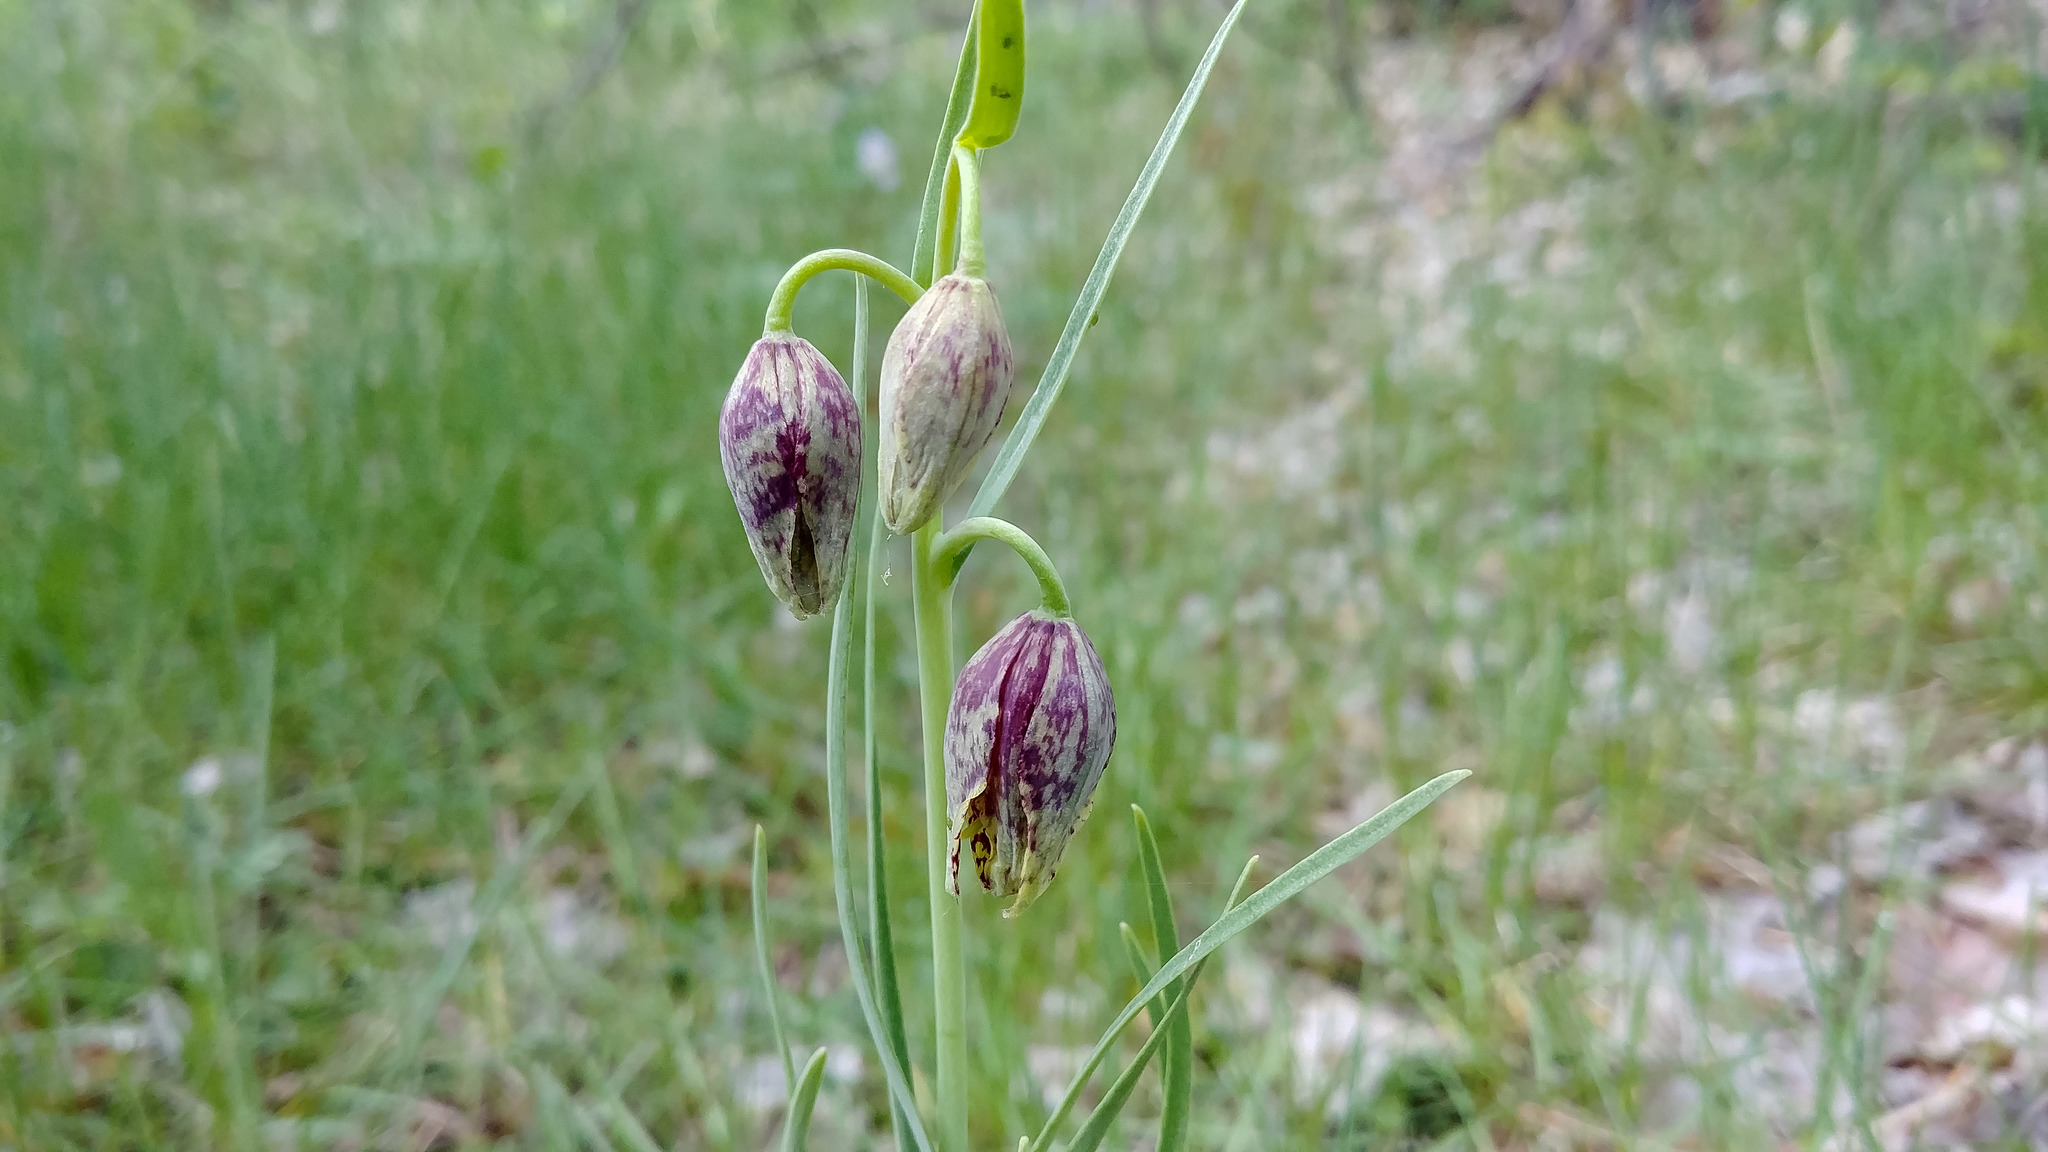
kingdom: Plantae
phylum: Tracheophyta
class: Liliopsida
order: Liliales
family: Liliaceae
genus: Fritillaria
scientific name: Fritillaria atropurpurea
